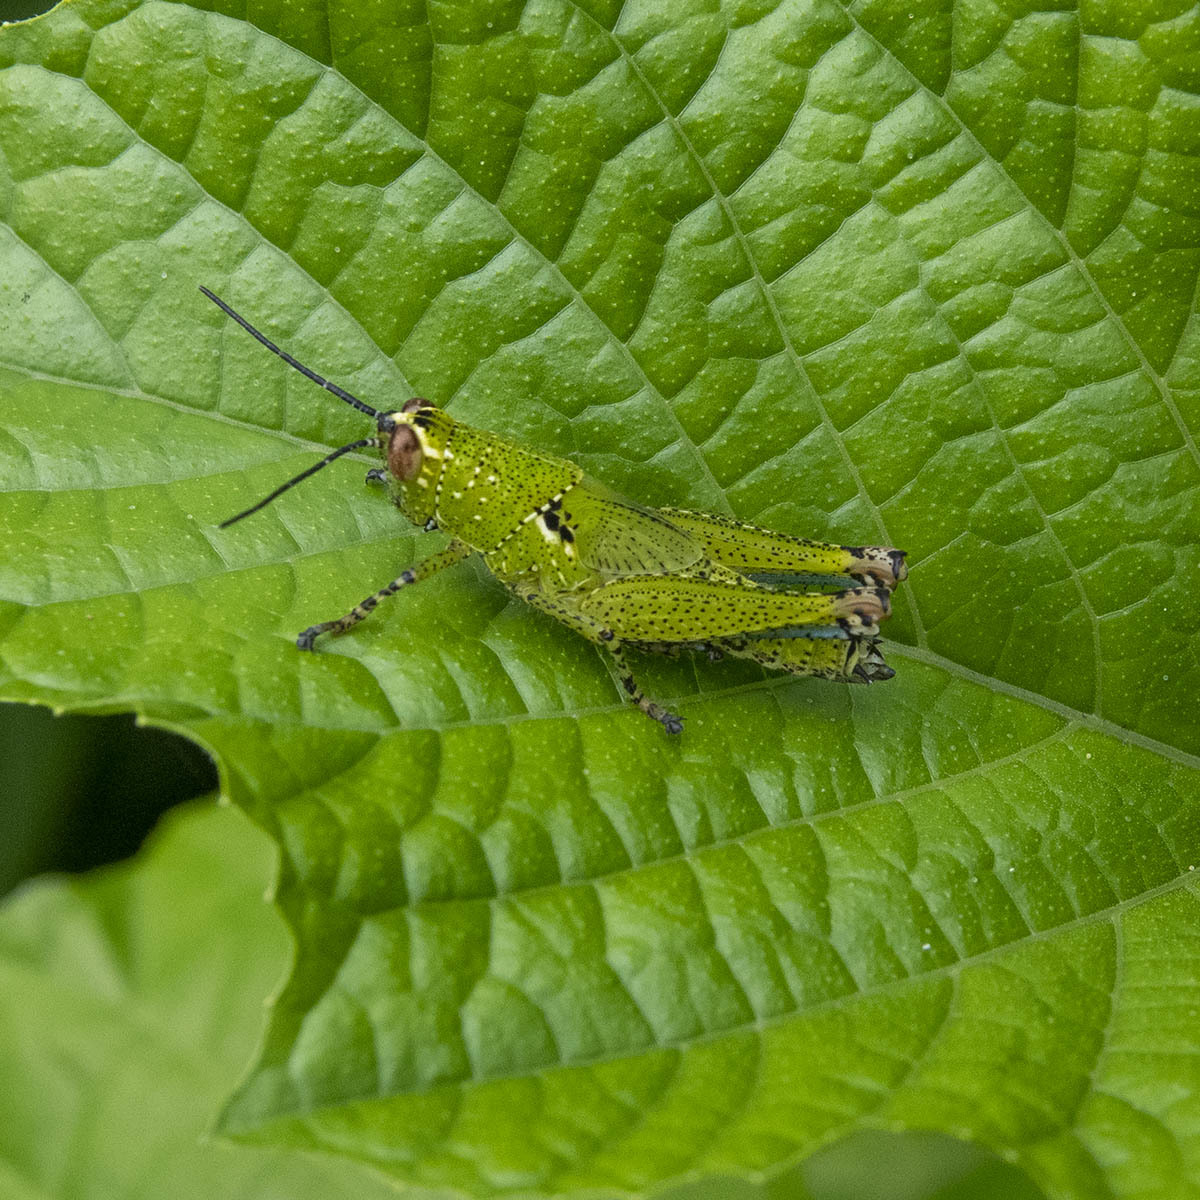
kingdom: Animalia
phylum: Arthropoda
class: Insecta
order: Orthoptera
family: Acrididae
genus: Xenocatantops
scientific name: Xenocatantops humile
